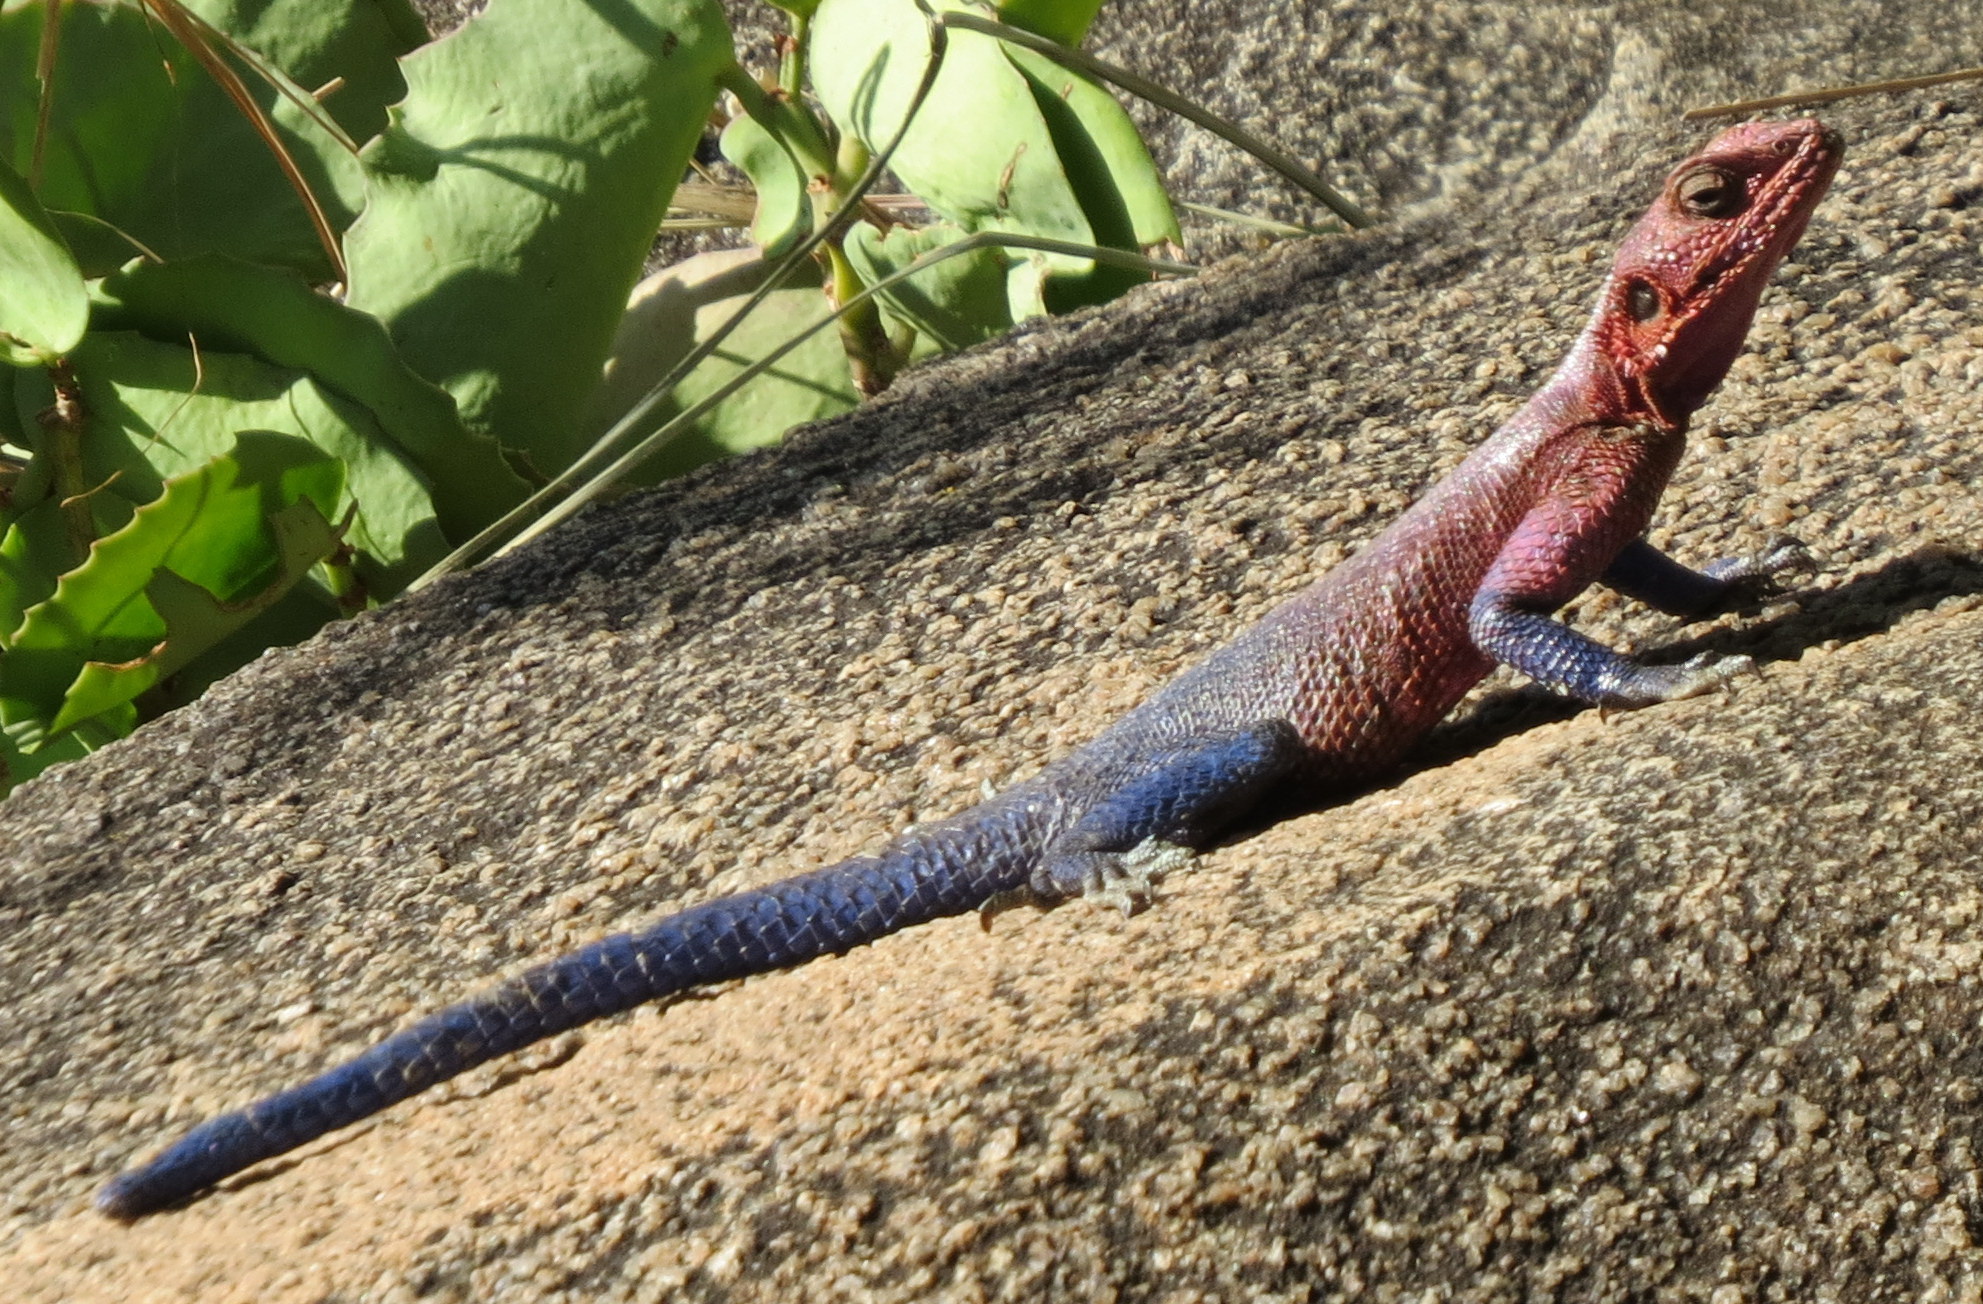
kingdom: Animalia
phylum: Chordata
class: Squamata
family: Agamidae
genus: Agama
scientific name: Agama mwanzae
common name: Mwanza flat-headed agama
